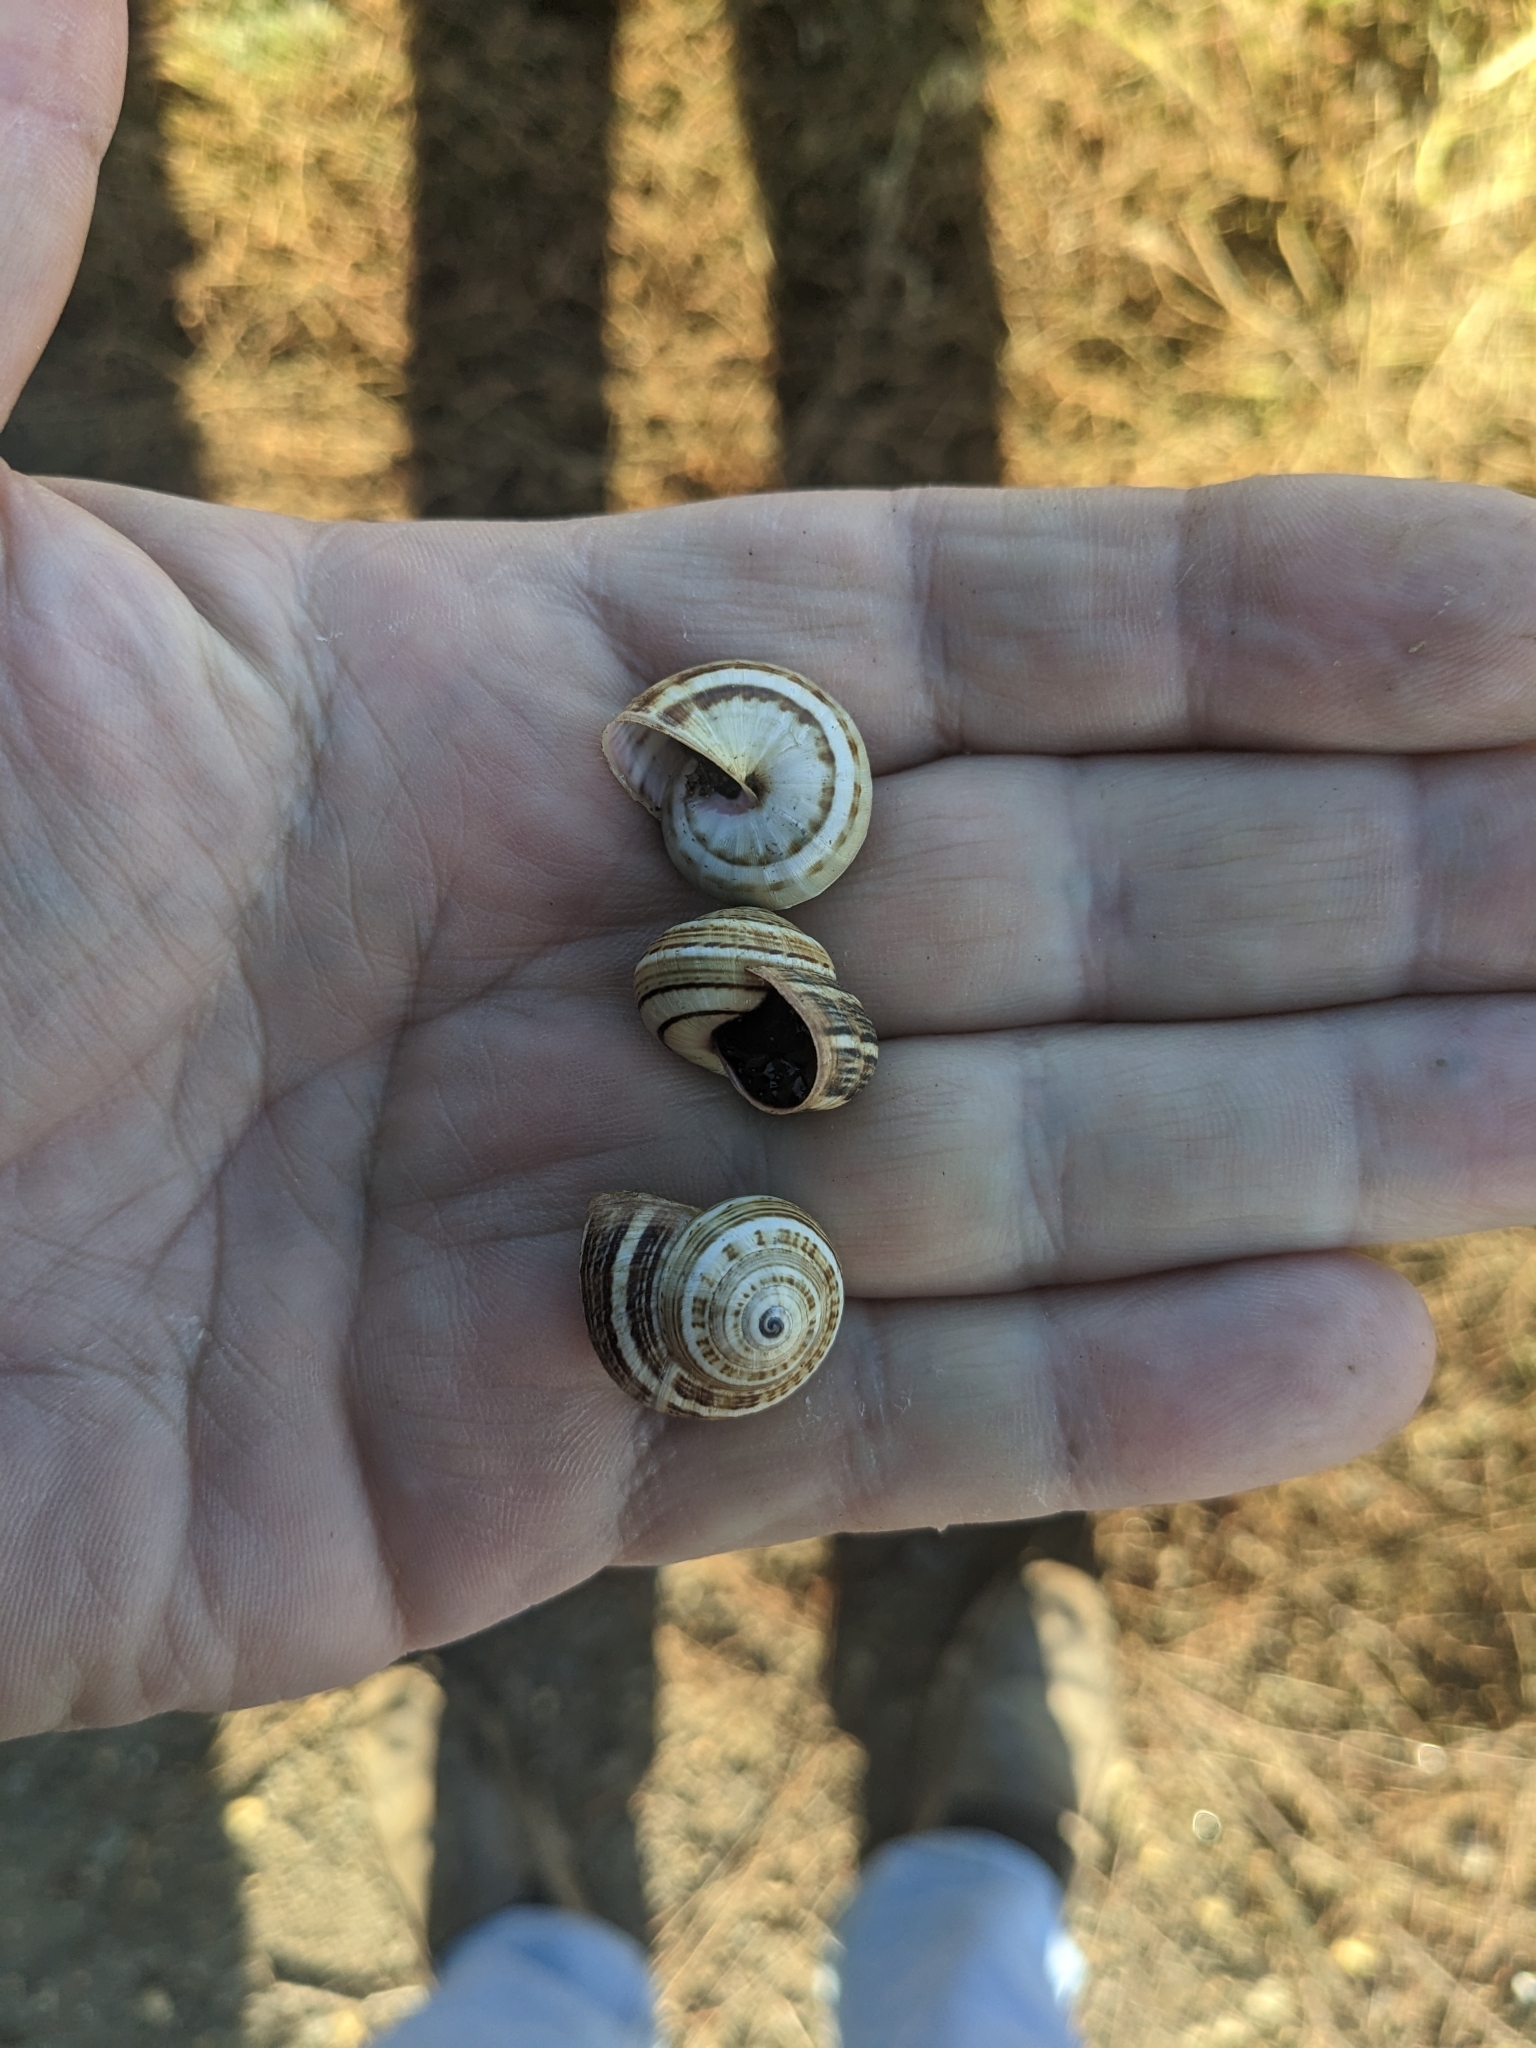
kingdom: Animalia
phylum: Mollusca
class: Gastropoda
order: Stylommatophora
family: Helicidae
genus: Theba
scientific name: Theba pisana
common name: White snail
